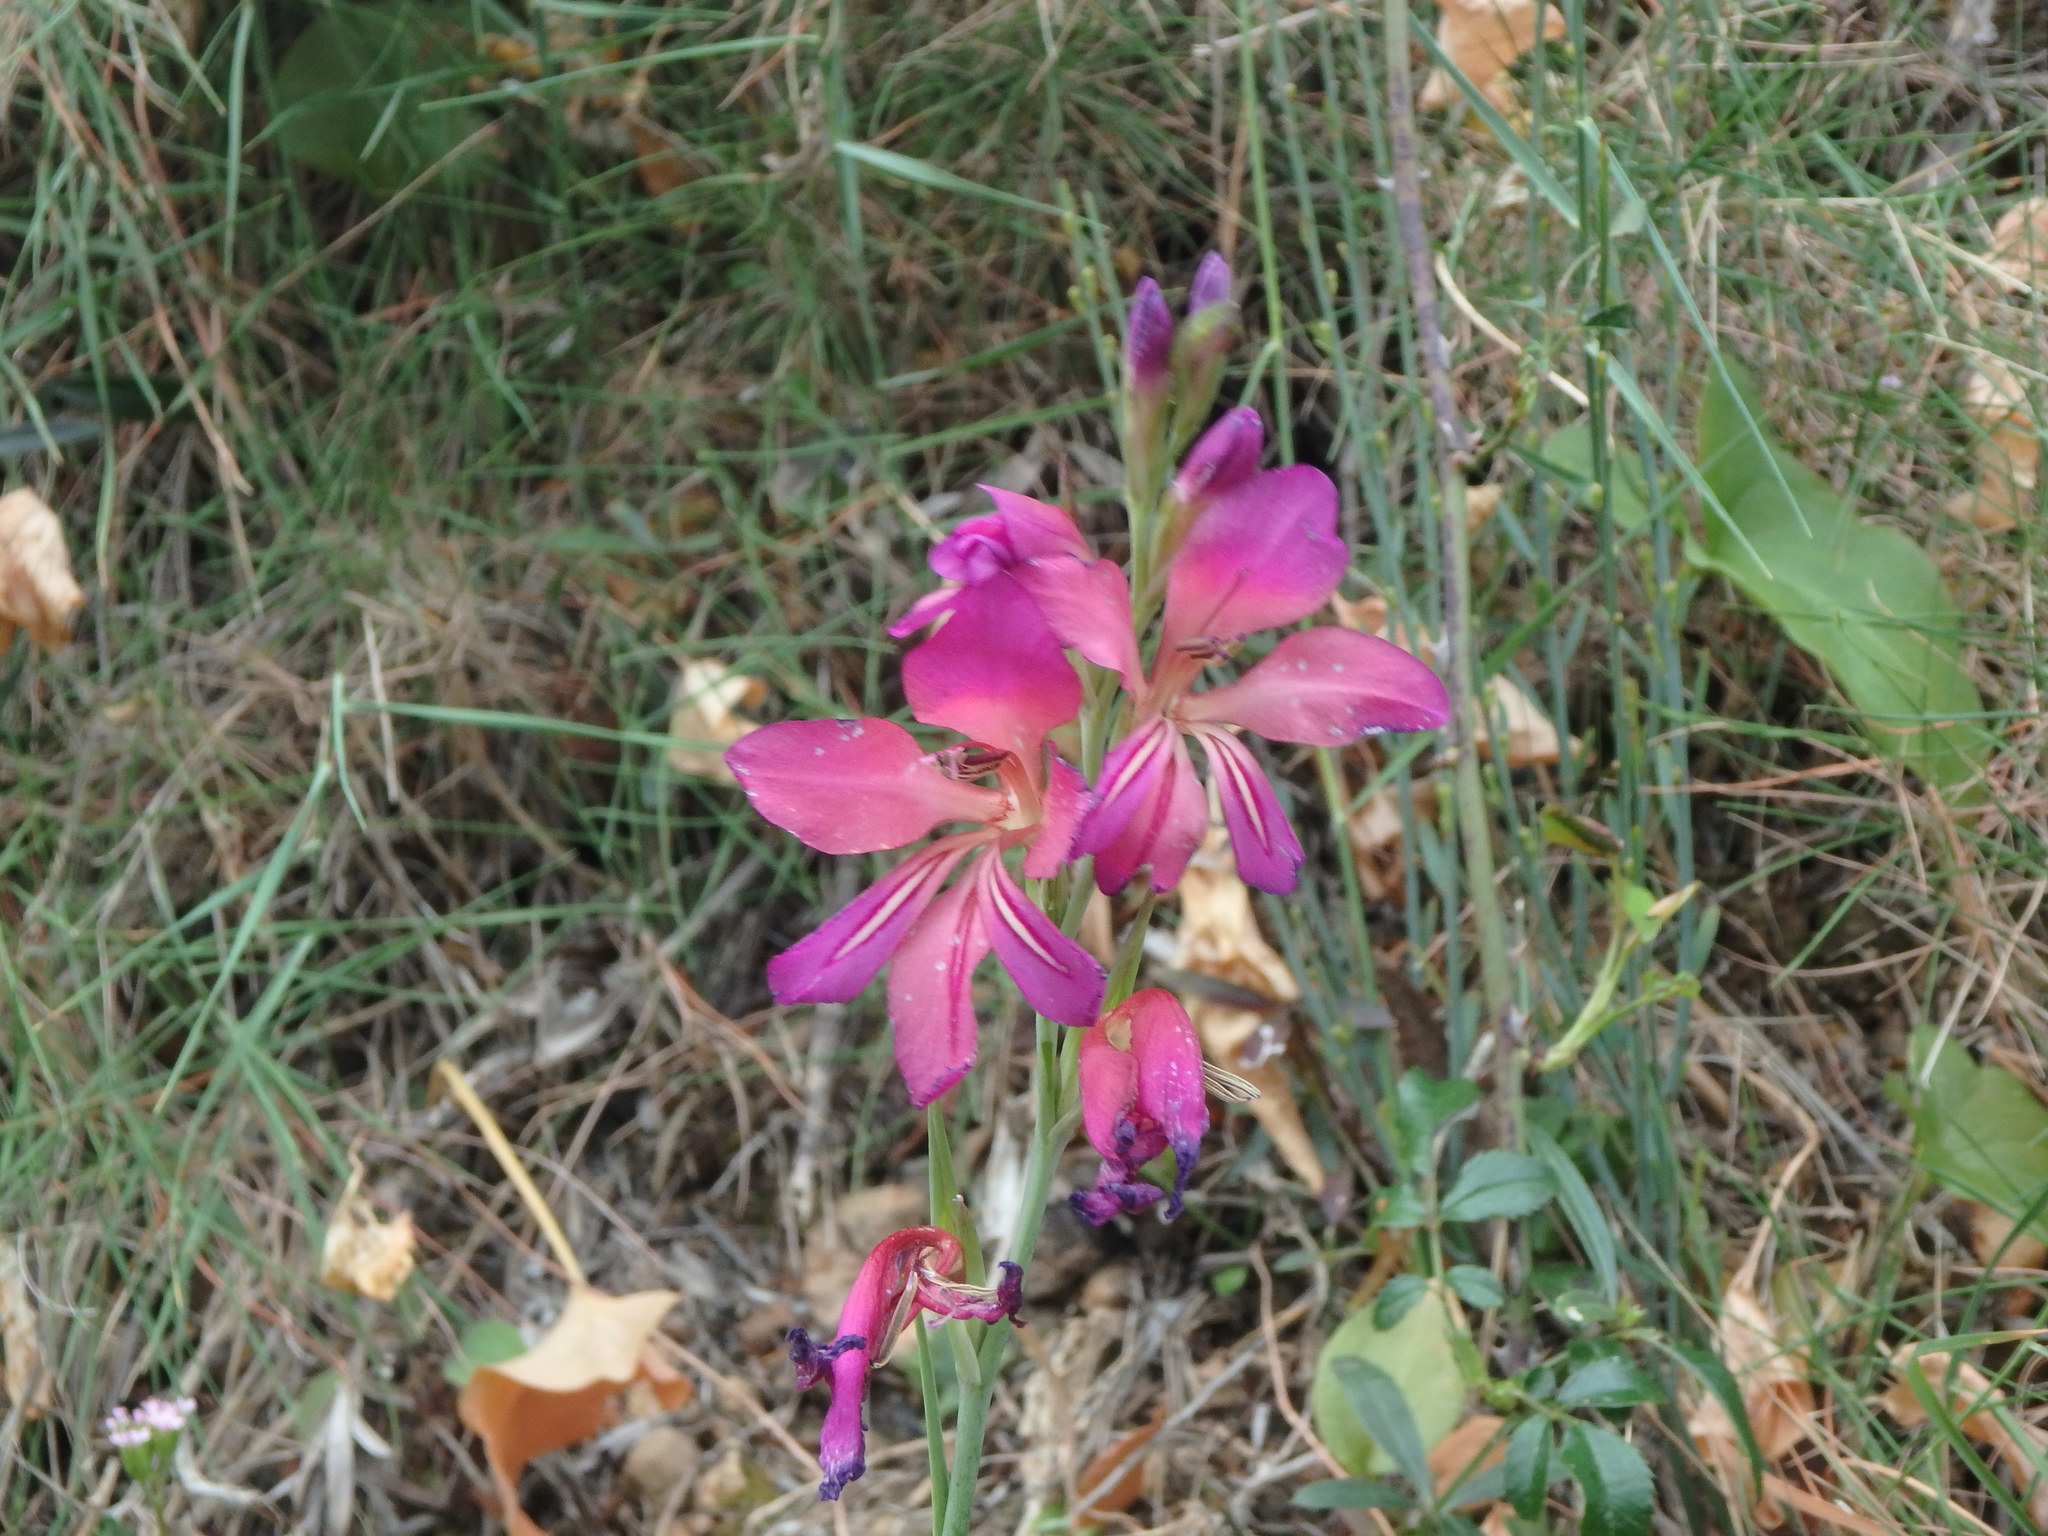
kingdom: Plantae
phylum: Tracheophyta
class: Liliopsida
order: Asparagales
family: Iridaceae
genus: Gladiolus
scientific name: Gladiolus illyricus
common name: Wild gladiolus
